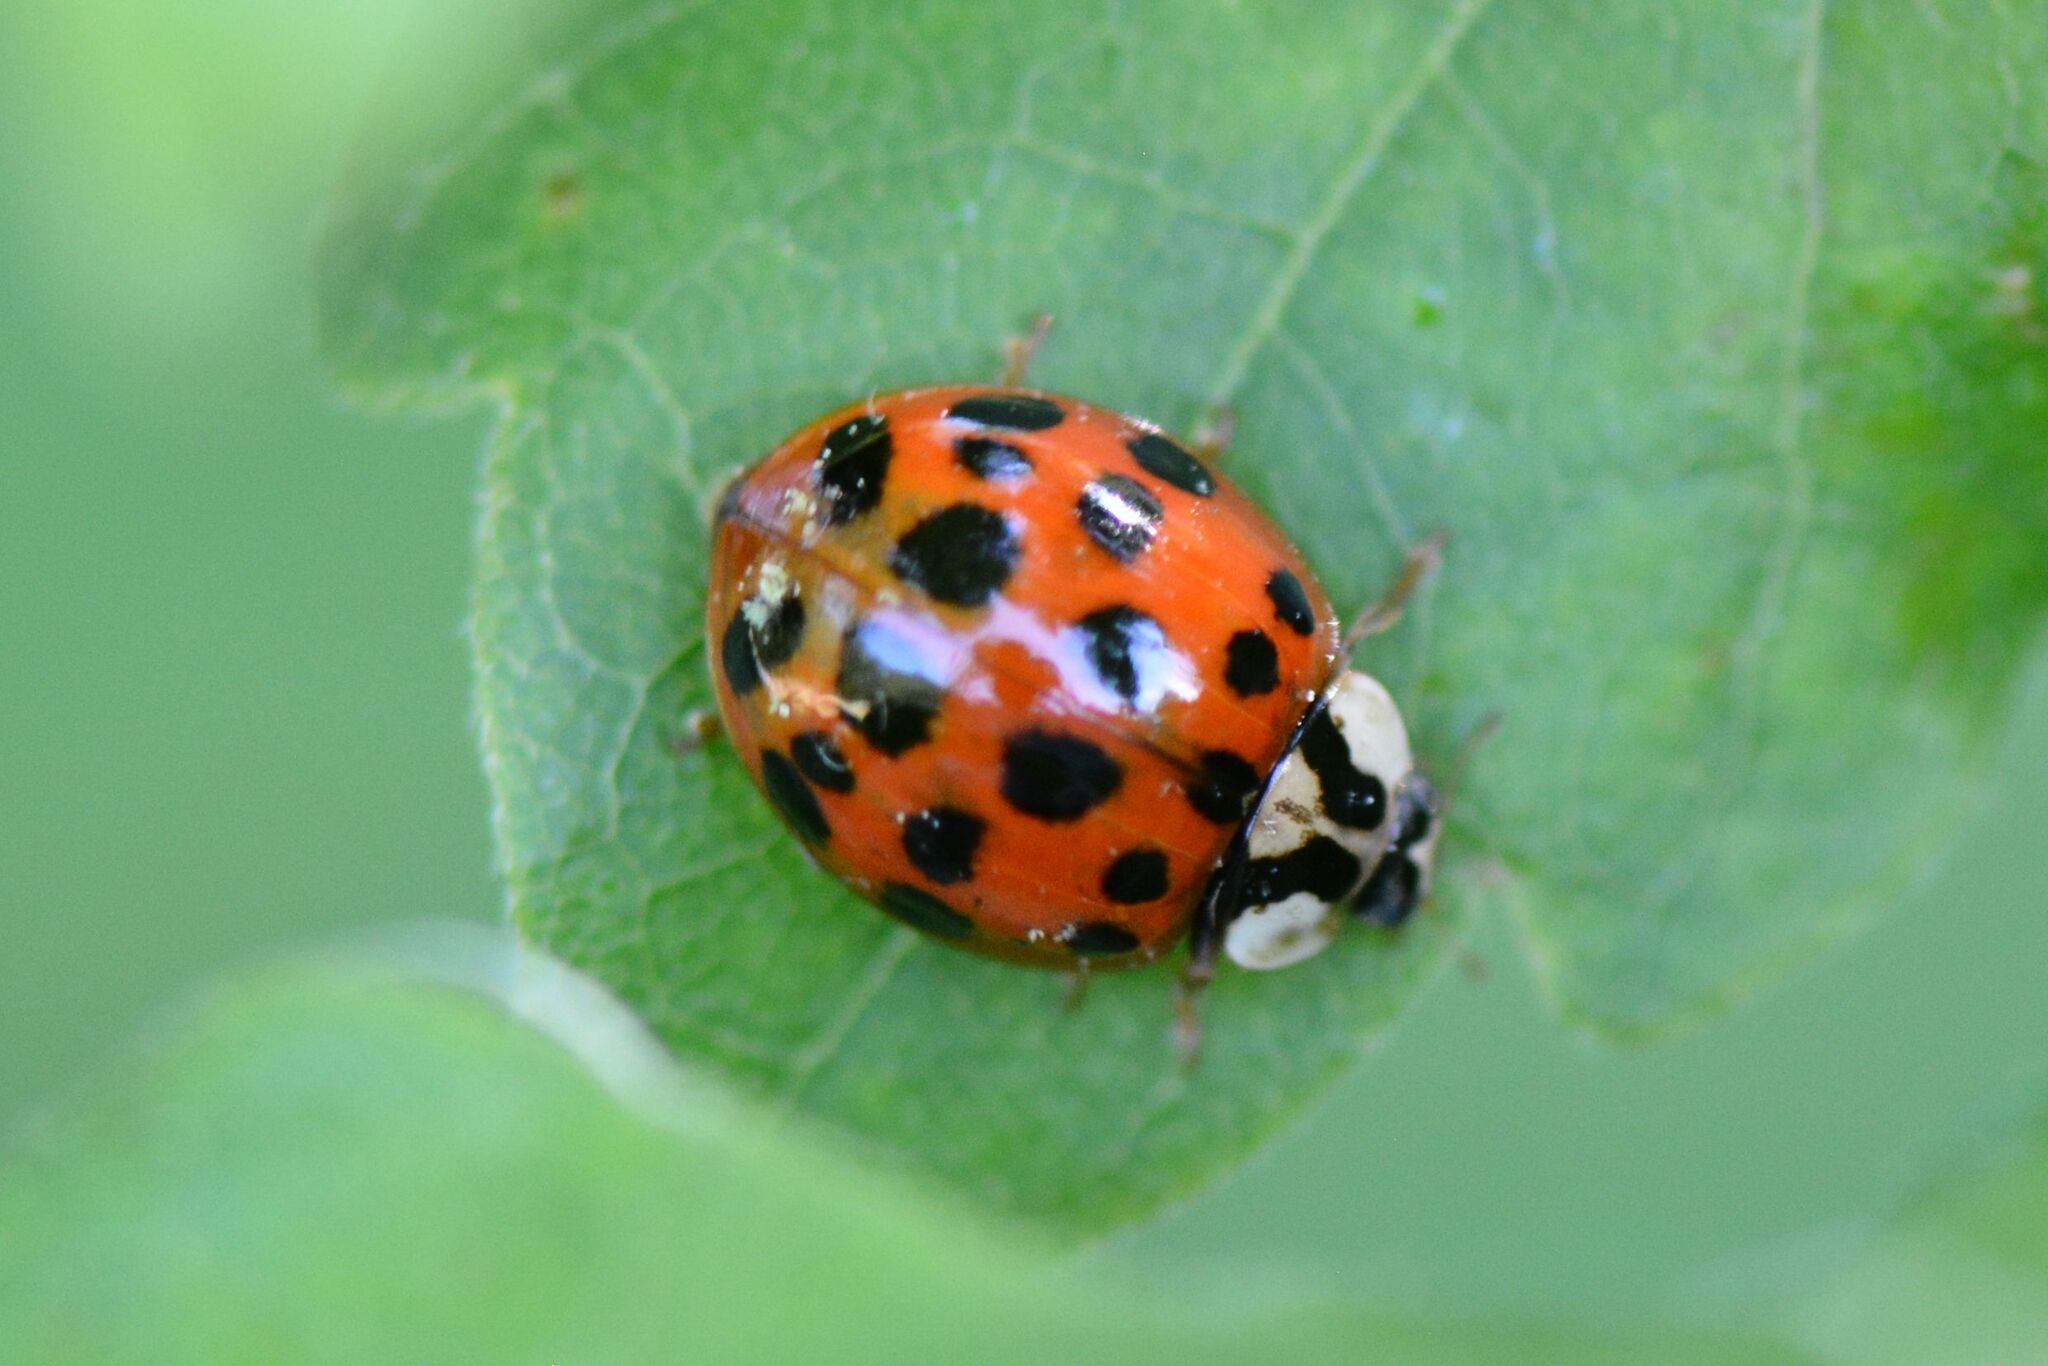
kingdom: Animalia
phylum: Arthropoda
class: Insecta
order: Coleoptera
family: Coccinellidae
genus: Harmonia
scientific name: Harmonia axyridis
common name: Harlequin ladybird
